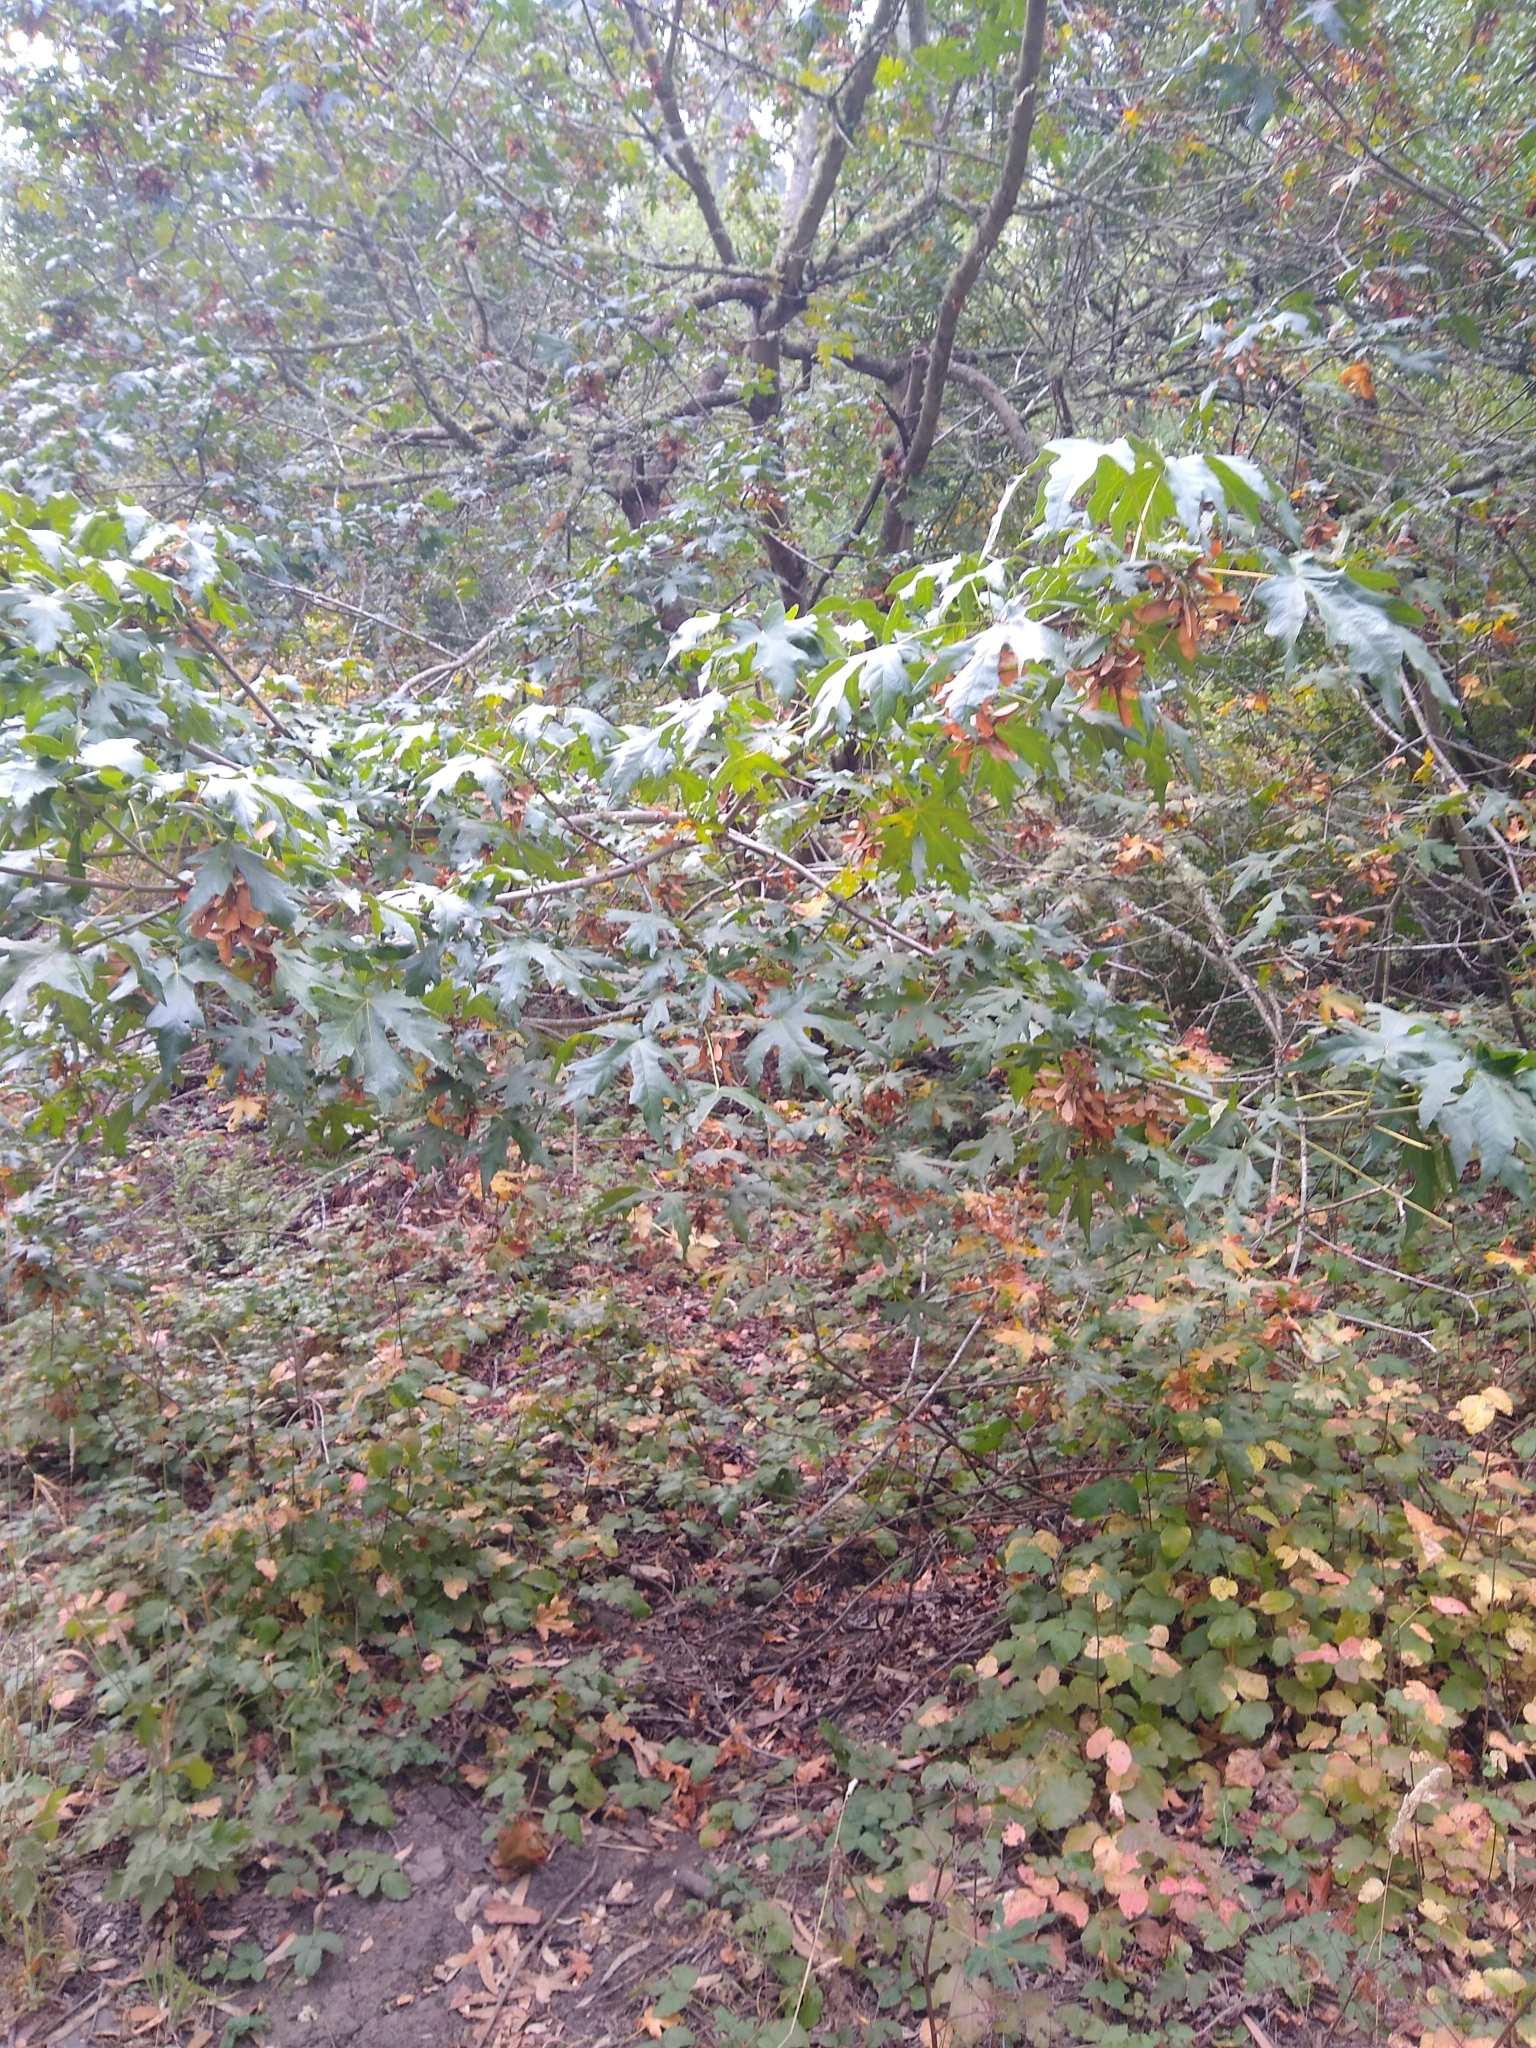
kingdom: Plantae
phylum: Tracheophyta
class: Magnoliopsida
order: Sapindales
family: Sapindaceae
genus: Acer
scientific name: Acer macrophyllum
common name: Oregon maple
